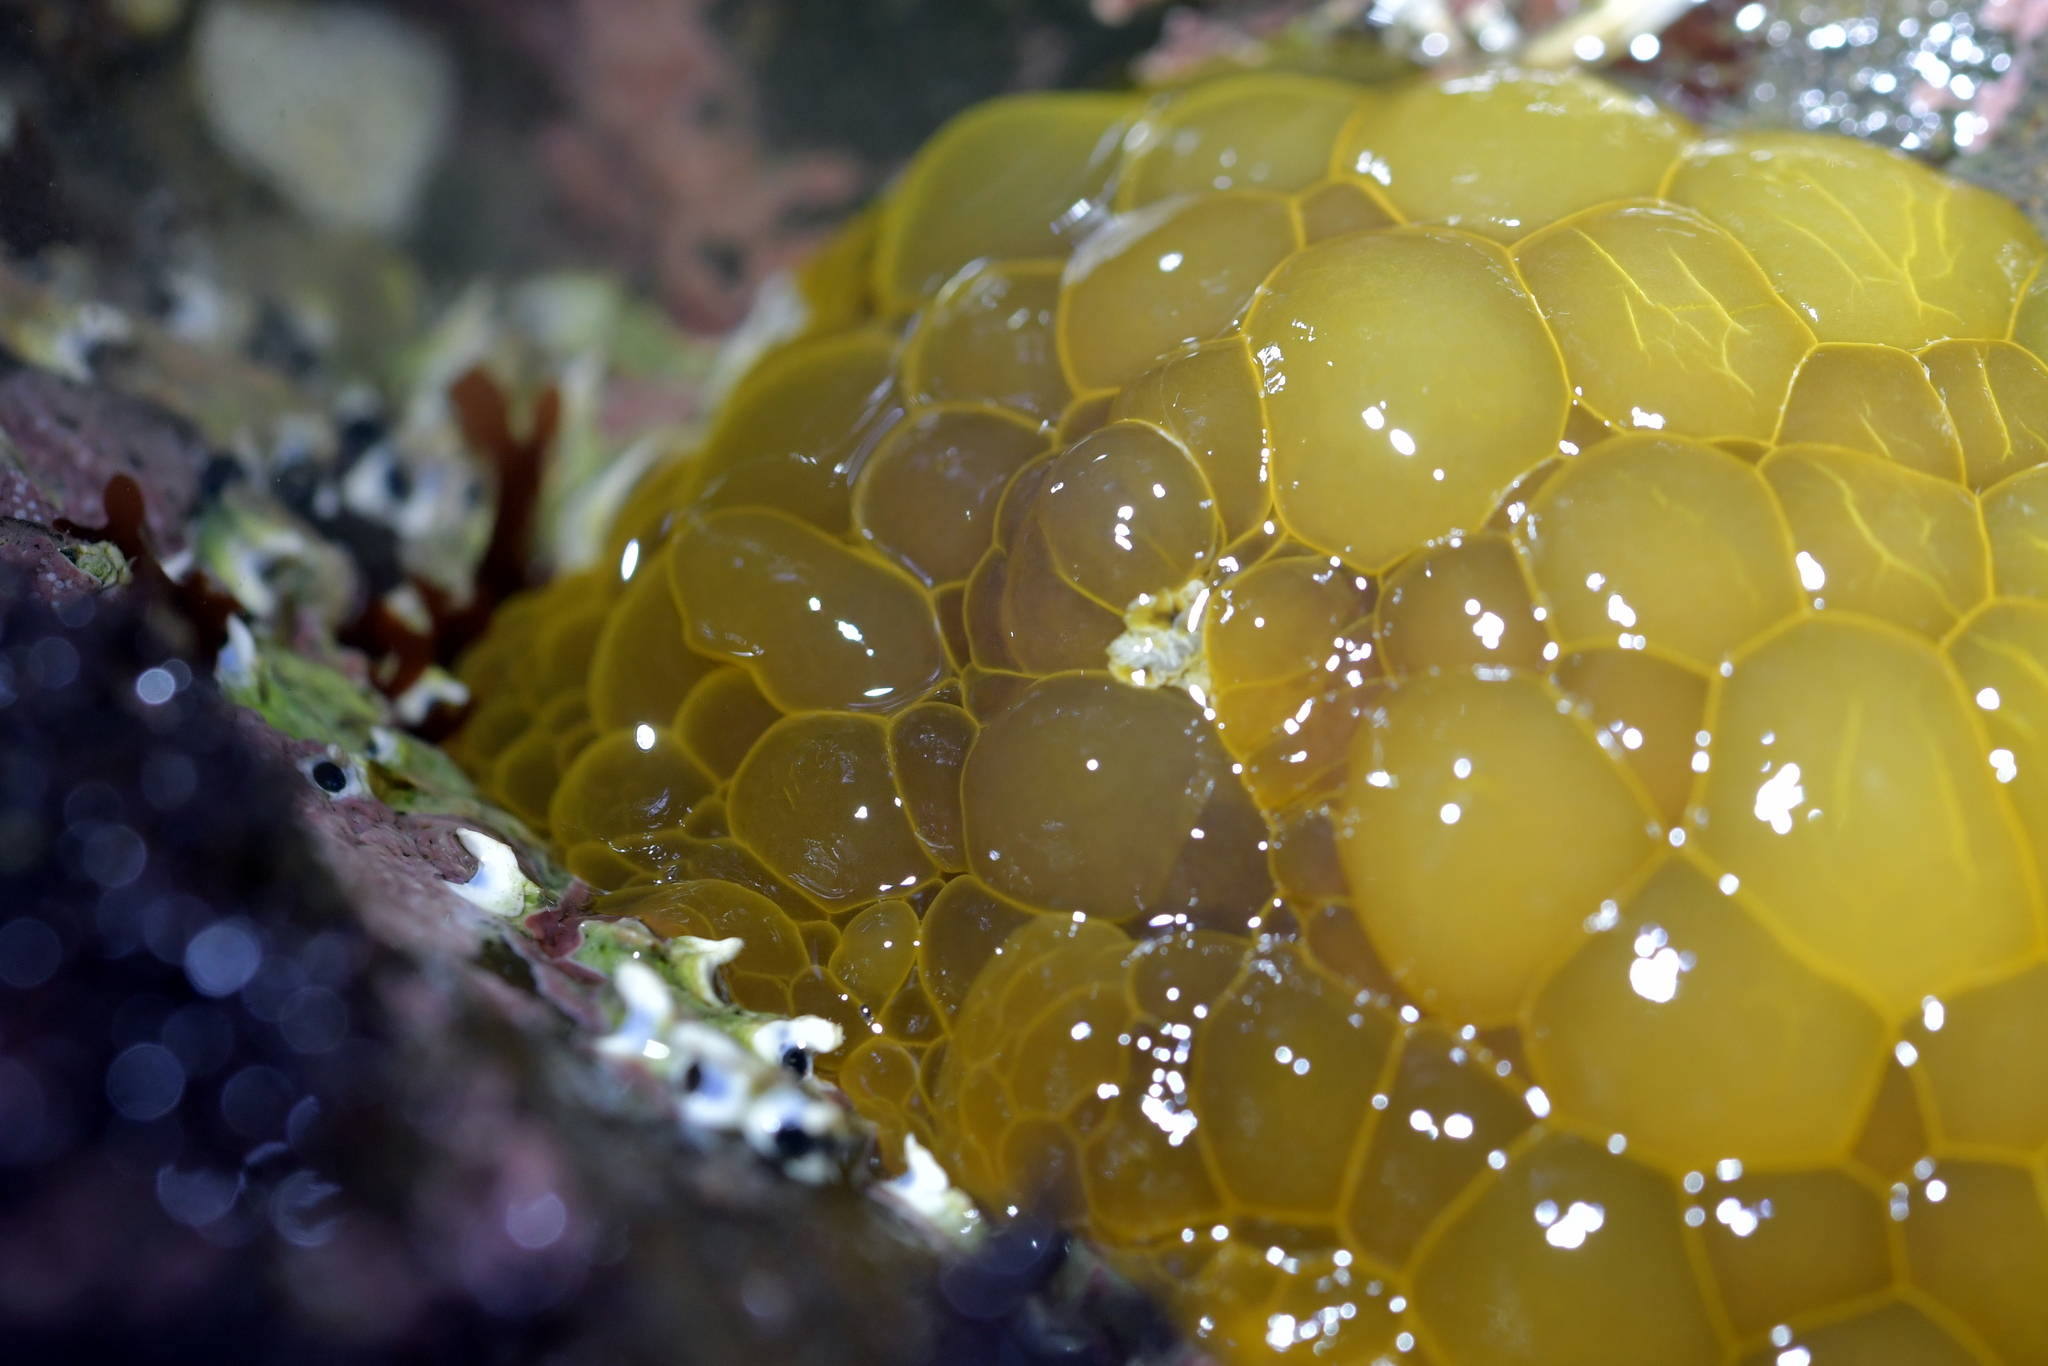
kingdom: Animalia
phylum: Mollusca
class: Gastropoda
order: Nudibranchia
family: Dorididae
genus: Doris
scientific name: Doris wellingtonensis
